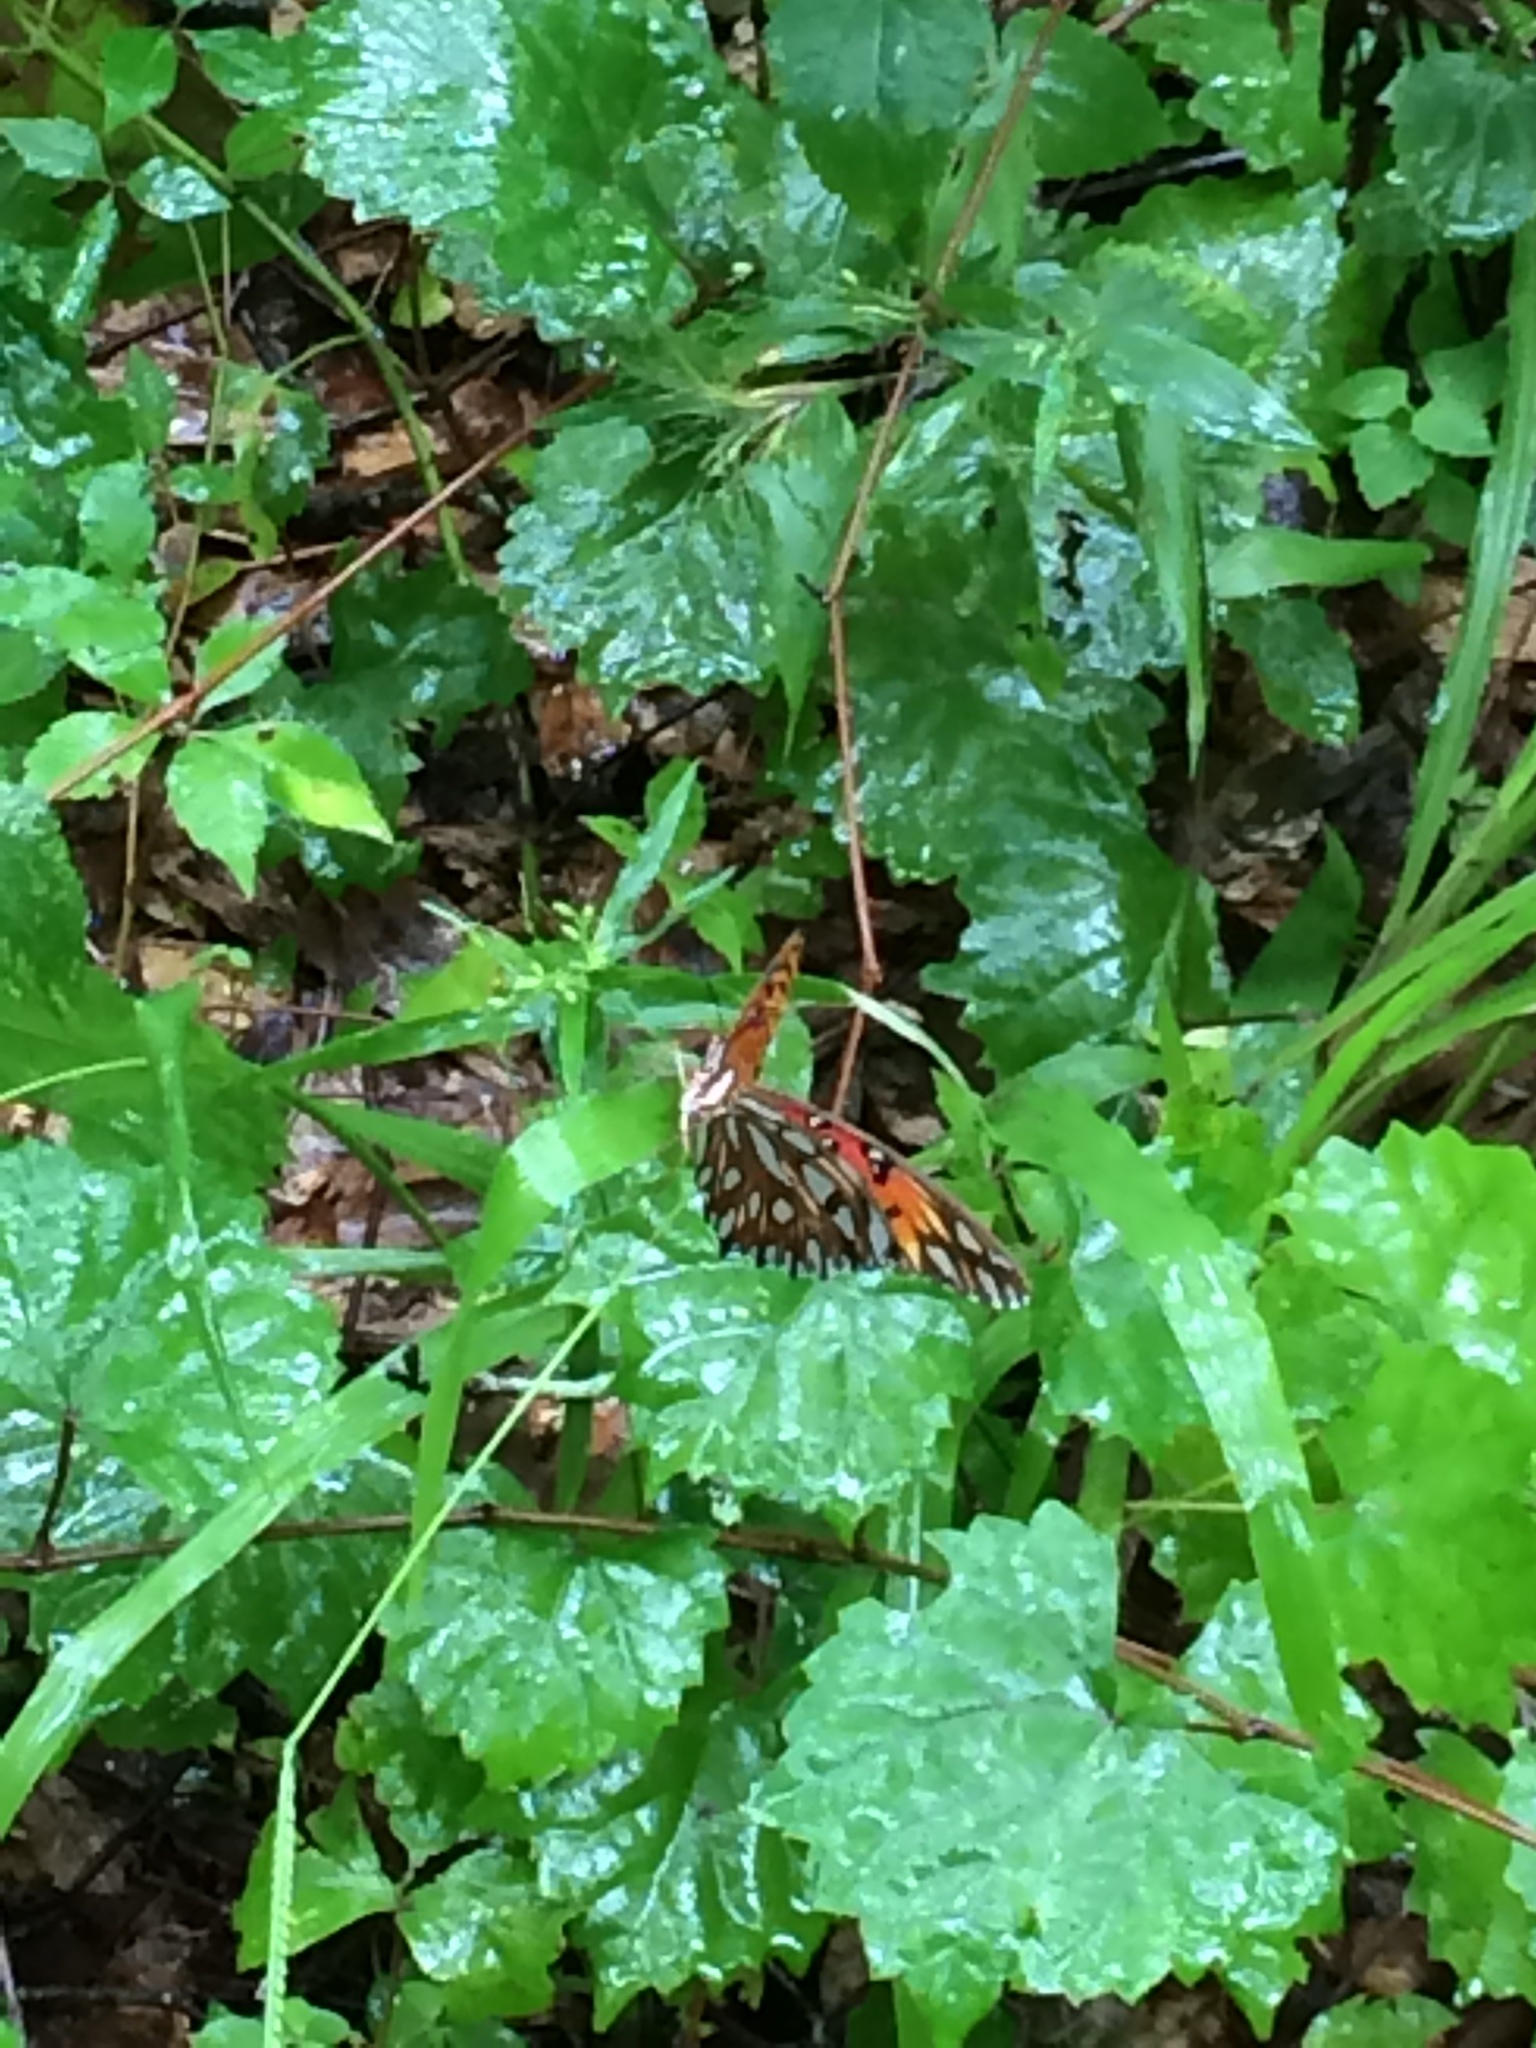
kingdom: Animalia
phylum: Arthropoda
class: Insecta
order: Lepidoptera
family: Nymphalidae
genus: Dione
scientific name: Dione vanillae
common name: Gulf fritillary
